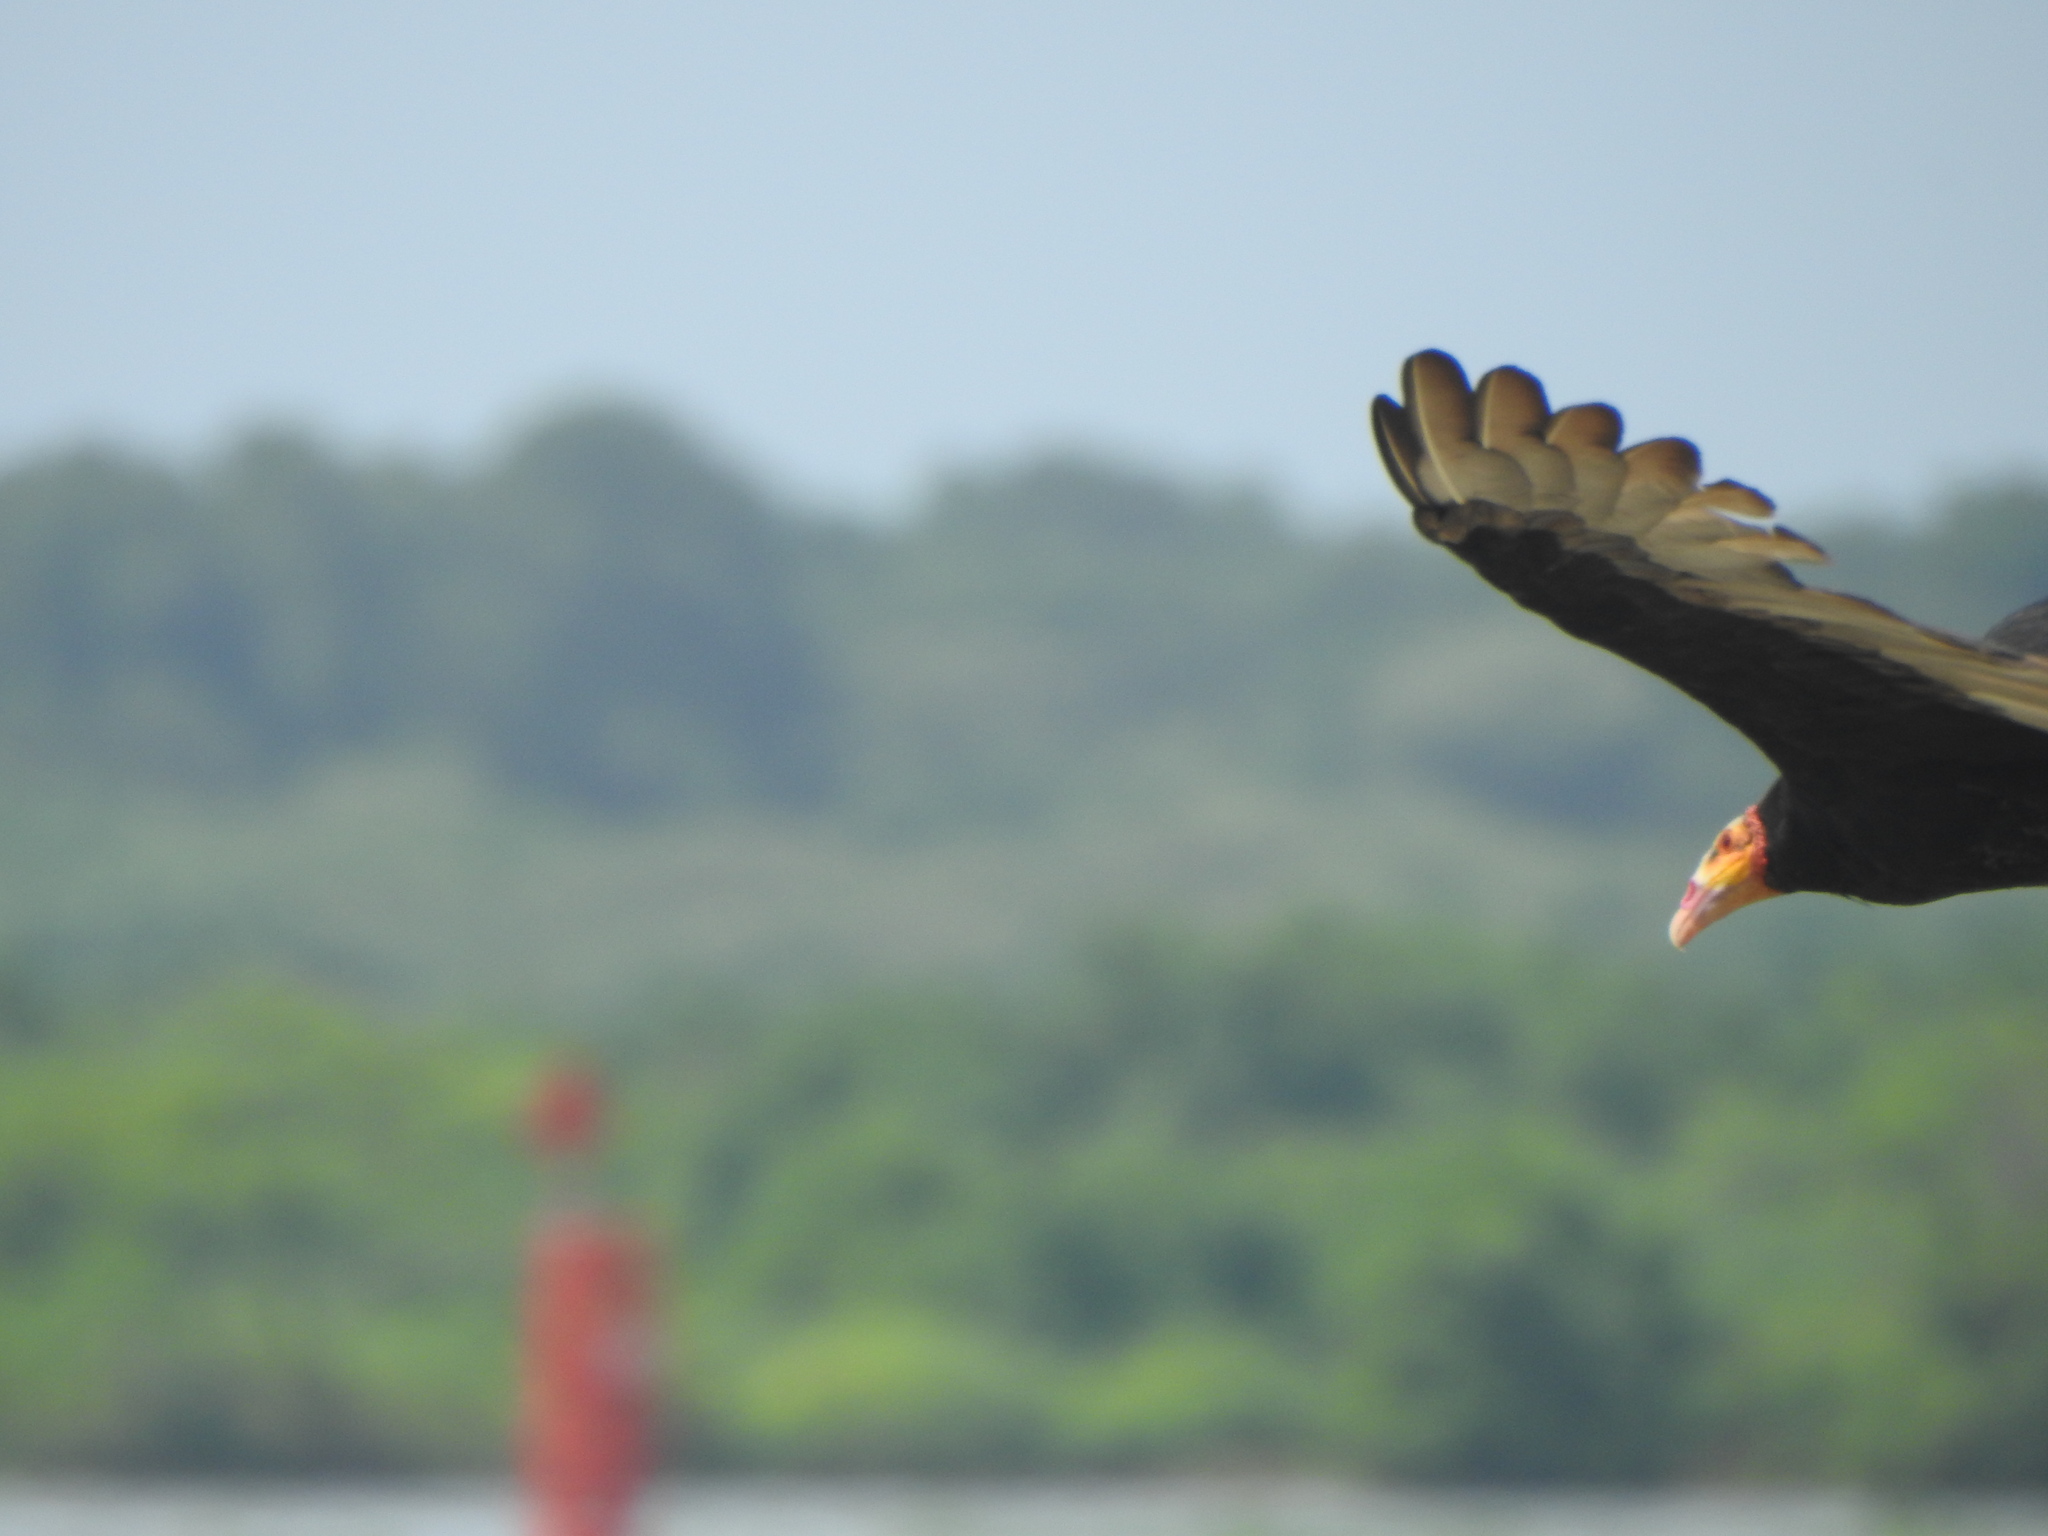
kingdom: Animalia
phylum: Chordata
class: Aves
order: Accipitriformes
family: Cathartidae
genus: Cathartes
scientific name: Cathartes burrovianus
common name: Lesser yellow-headed vulture
